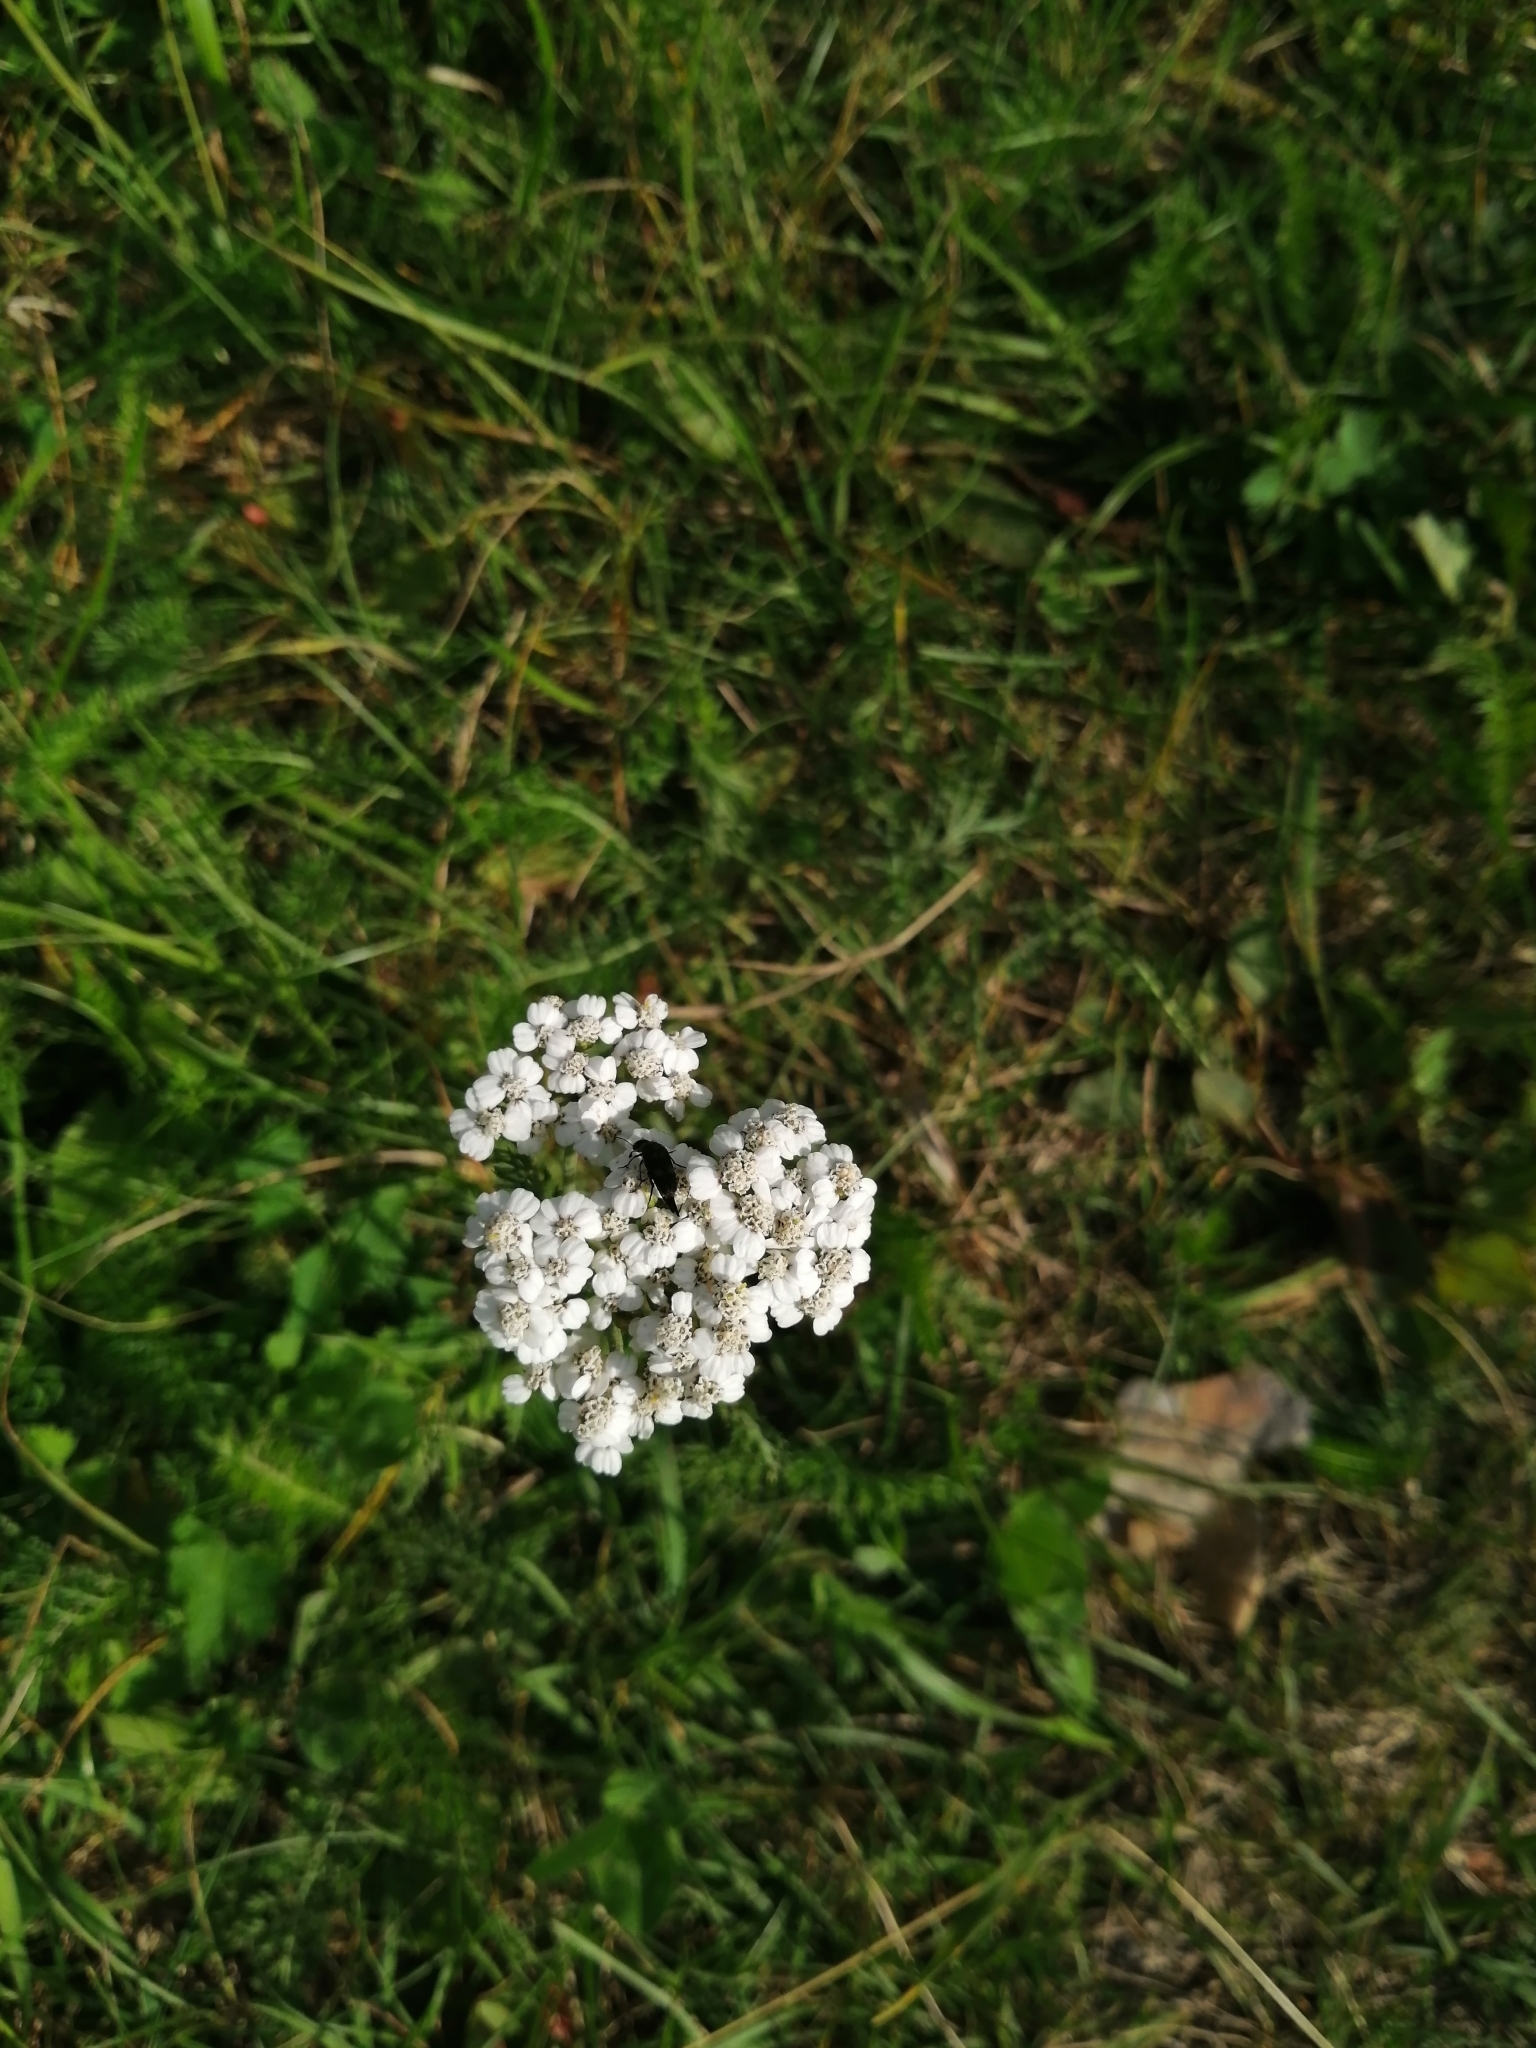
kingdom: Plantae
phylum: Tracheophyta
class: Magnoliopsida
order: Asterales
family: Asteraceae
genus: Achillea
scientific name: Achillea millefolium
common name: Yarrow
